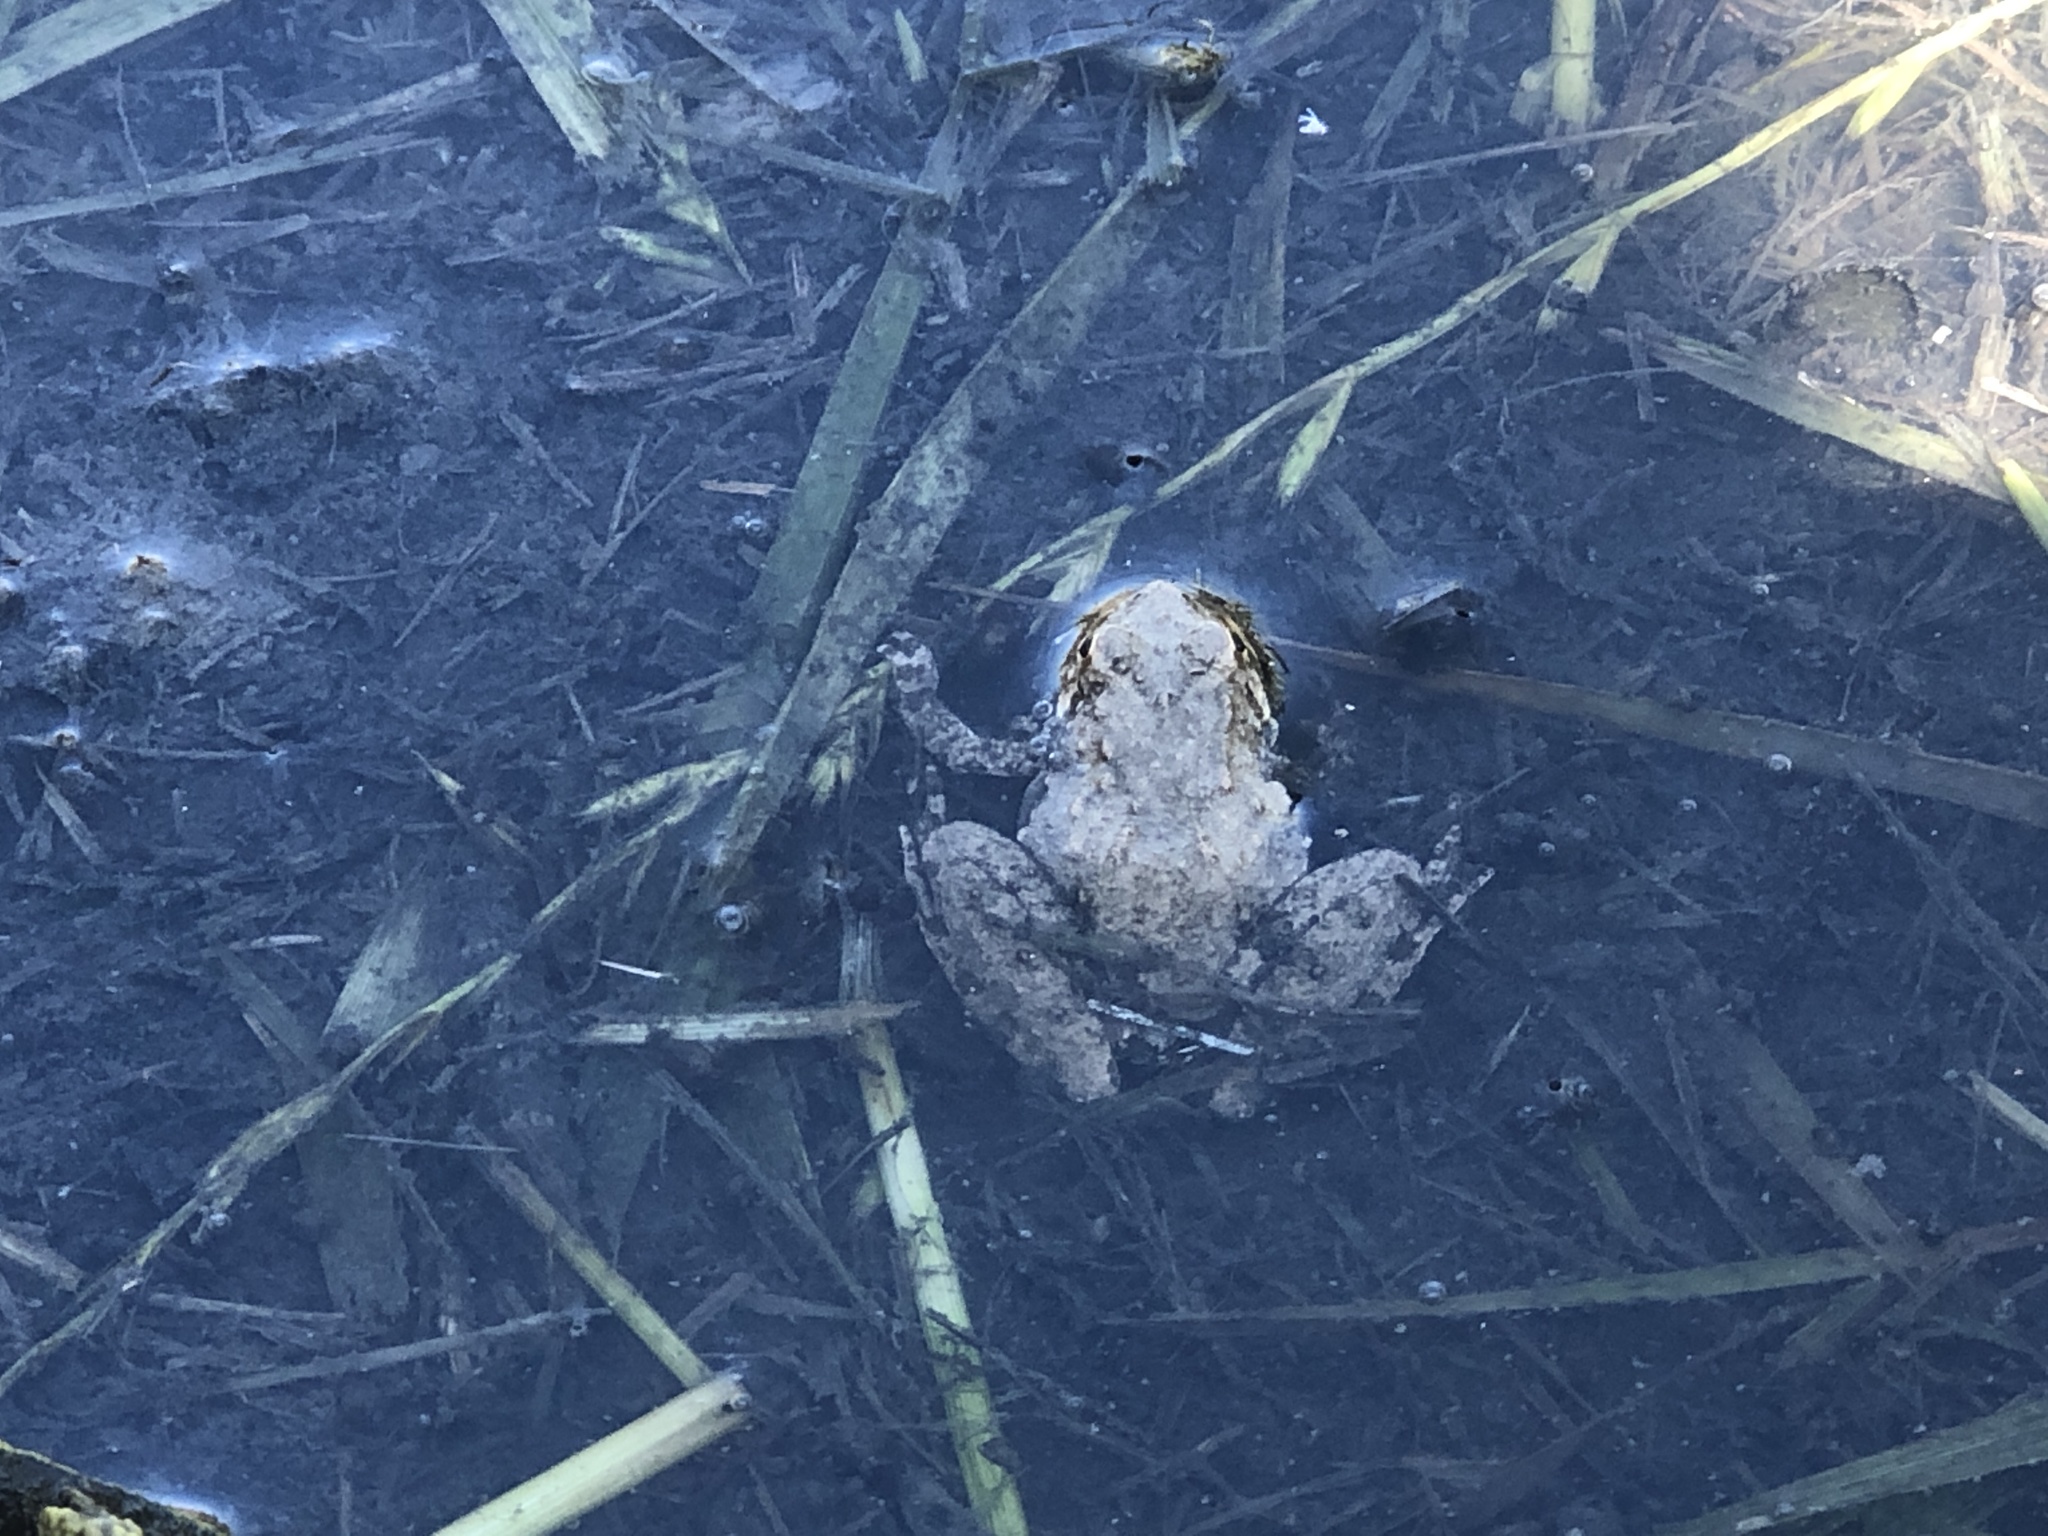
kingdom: Animalia
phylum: Chordata
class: Amphibia
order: Anura
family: Hylidae
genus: Acris
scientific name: Acris blanchardi
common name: Blanchard's cricket frog
